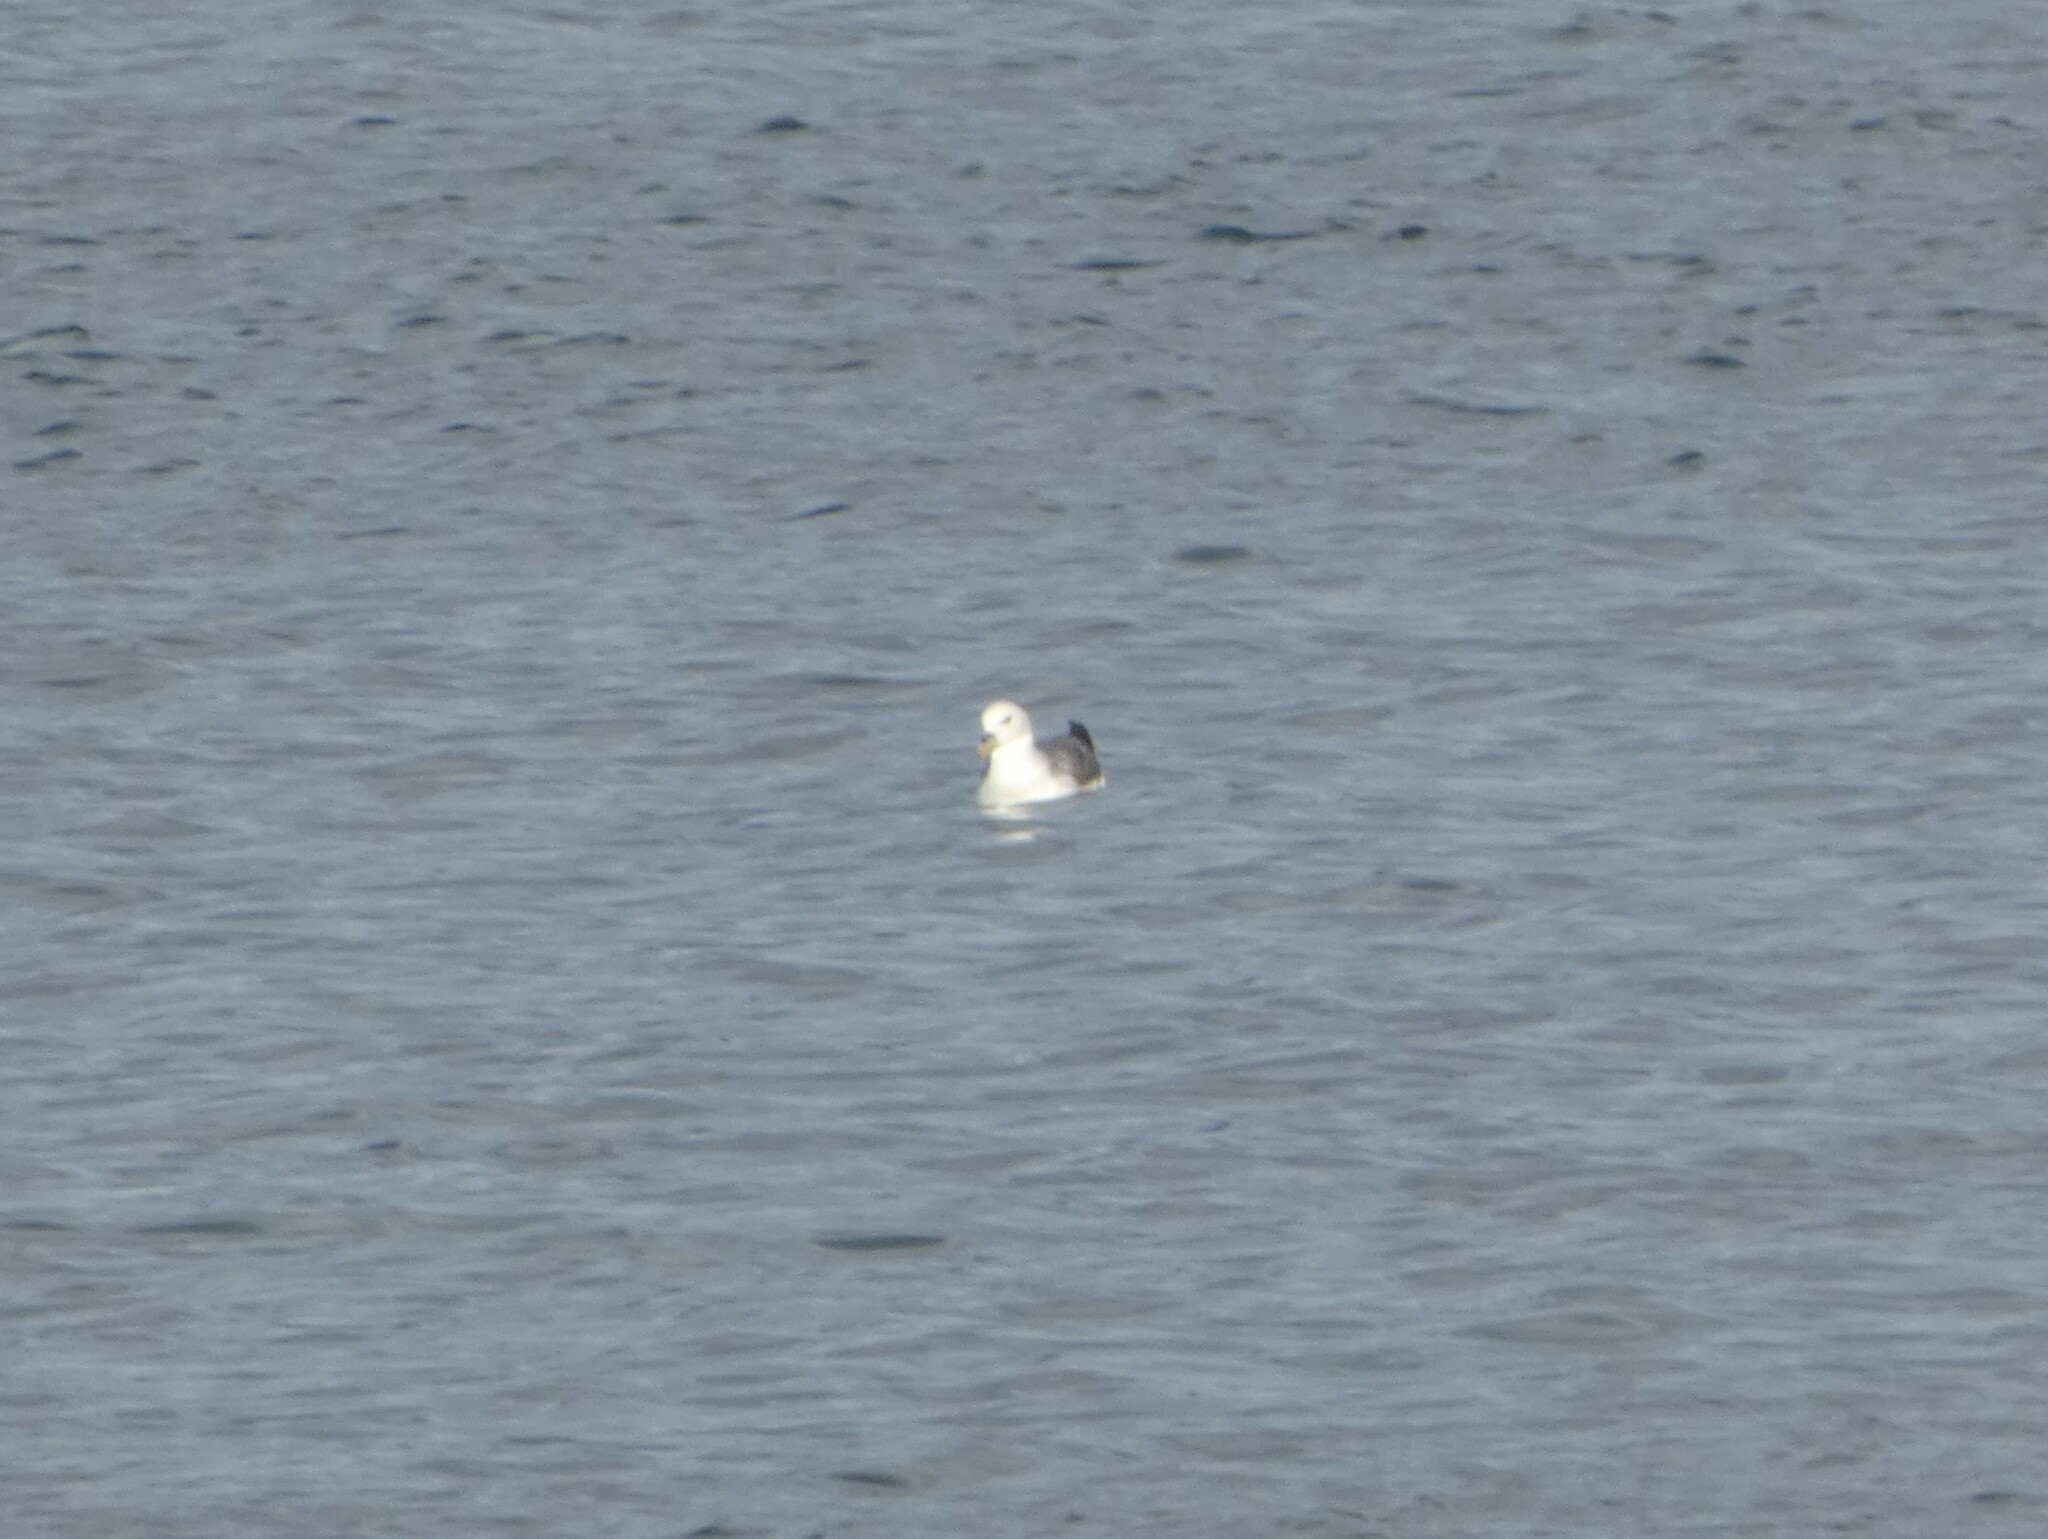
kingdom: Animalia
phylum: Chordata
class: Aves
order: Procellariiformes
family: Procellariidae
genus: Fulmarus
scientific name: Fulmarus glacialis
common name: Northern fulmar
